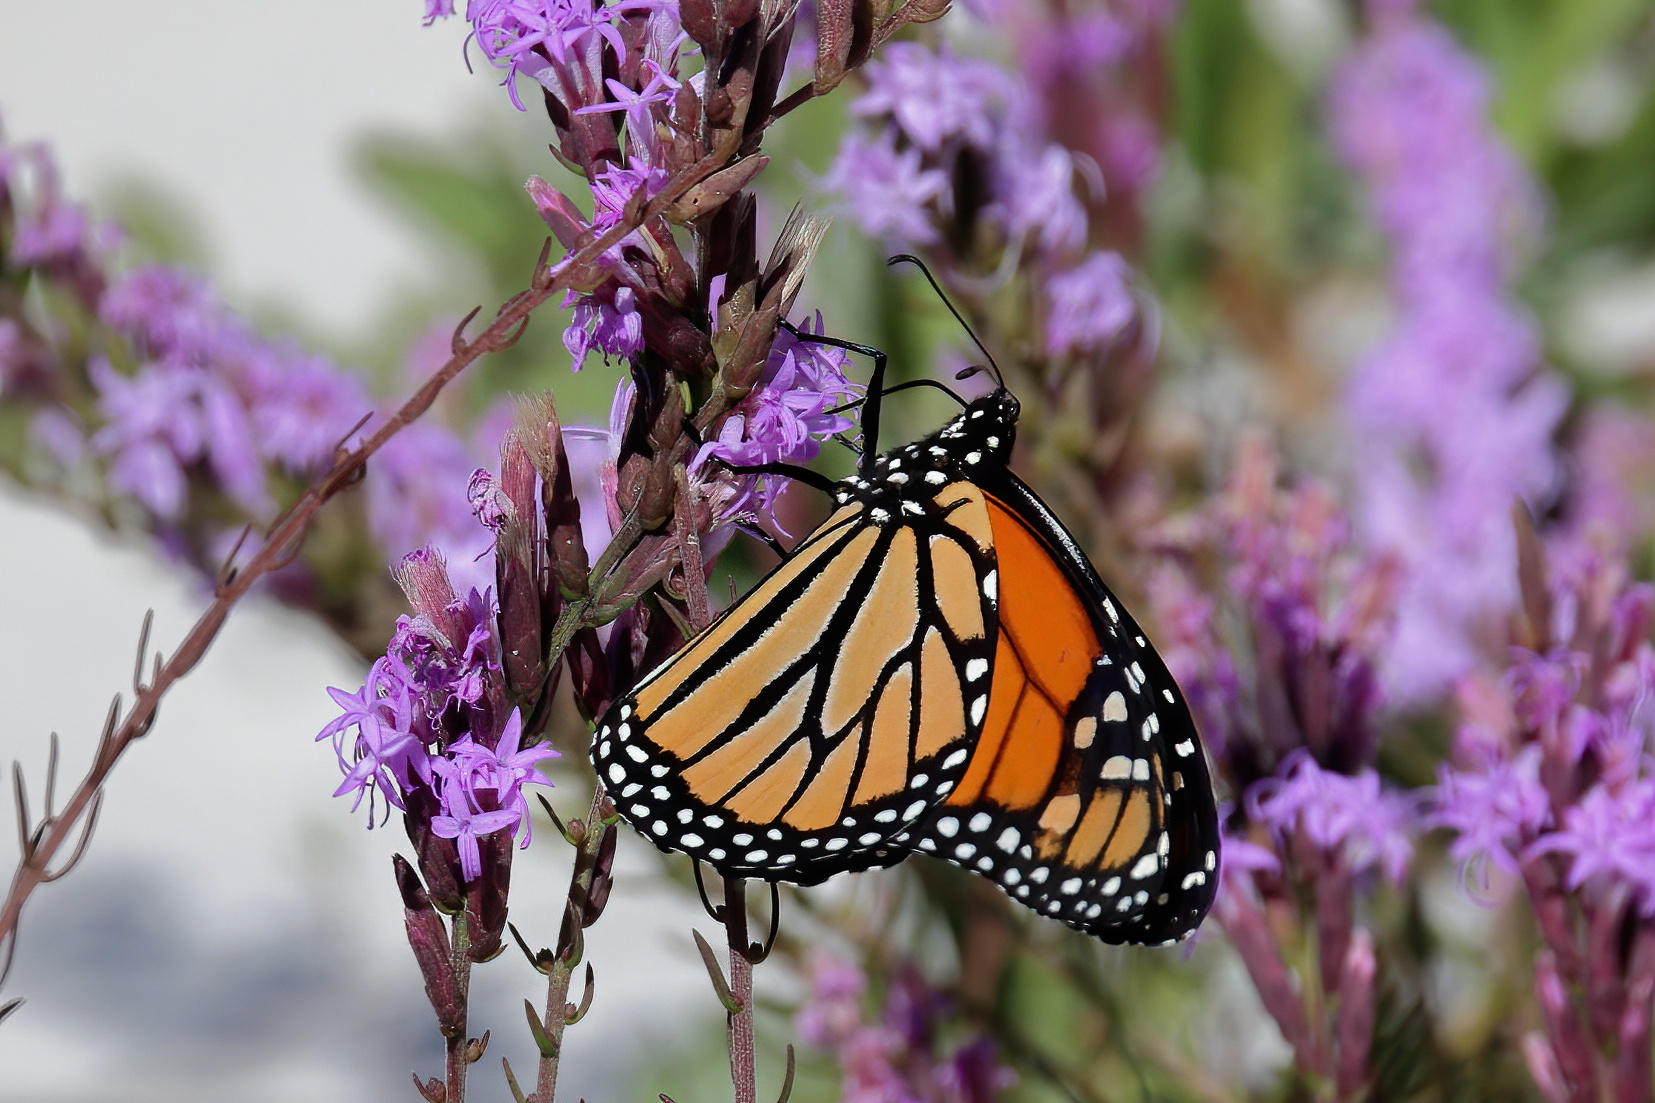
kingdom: Animalia
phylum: Arthropoda
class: Insecta
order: Lepidoptera
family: Nymphalidae
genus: Danaus
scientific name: Danaus plexippus
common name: Monarch
